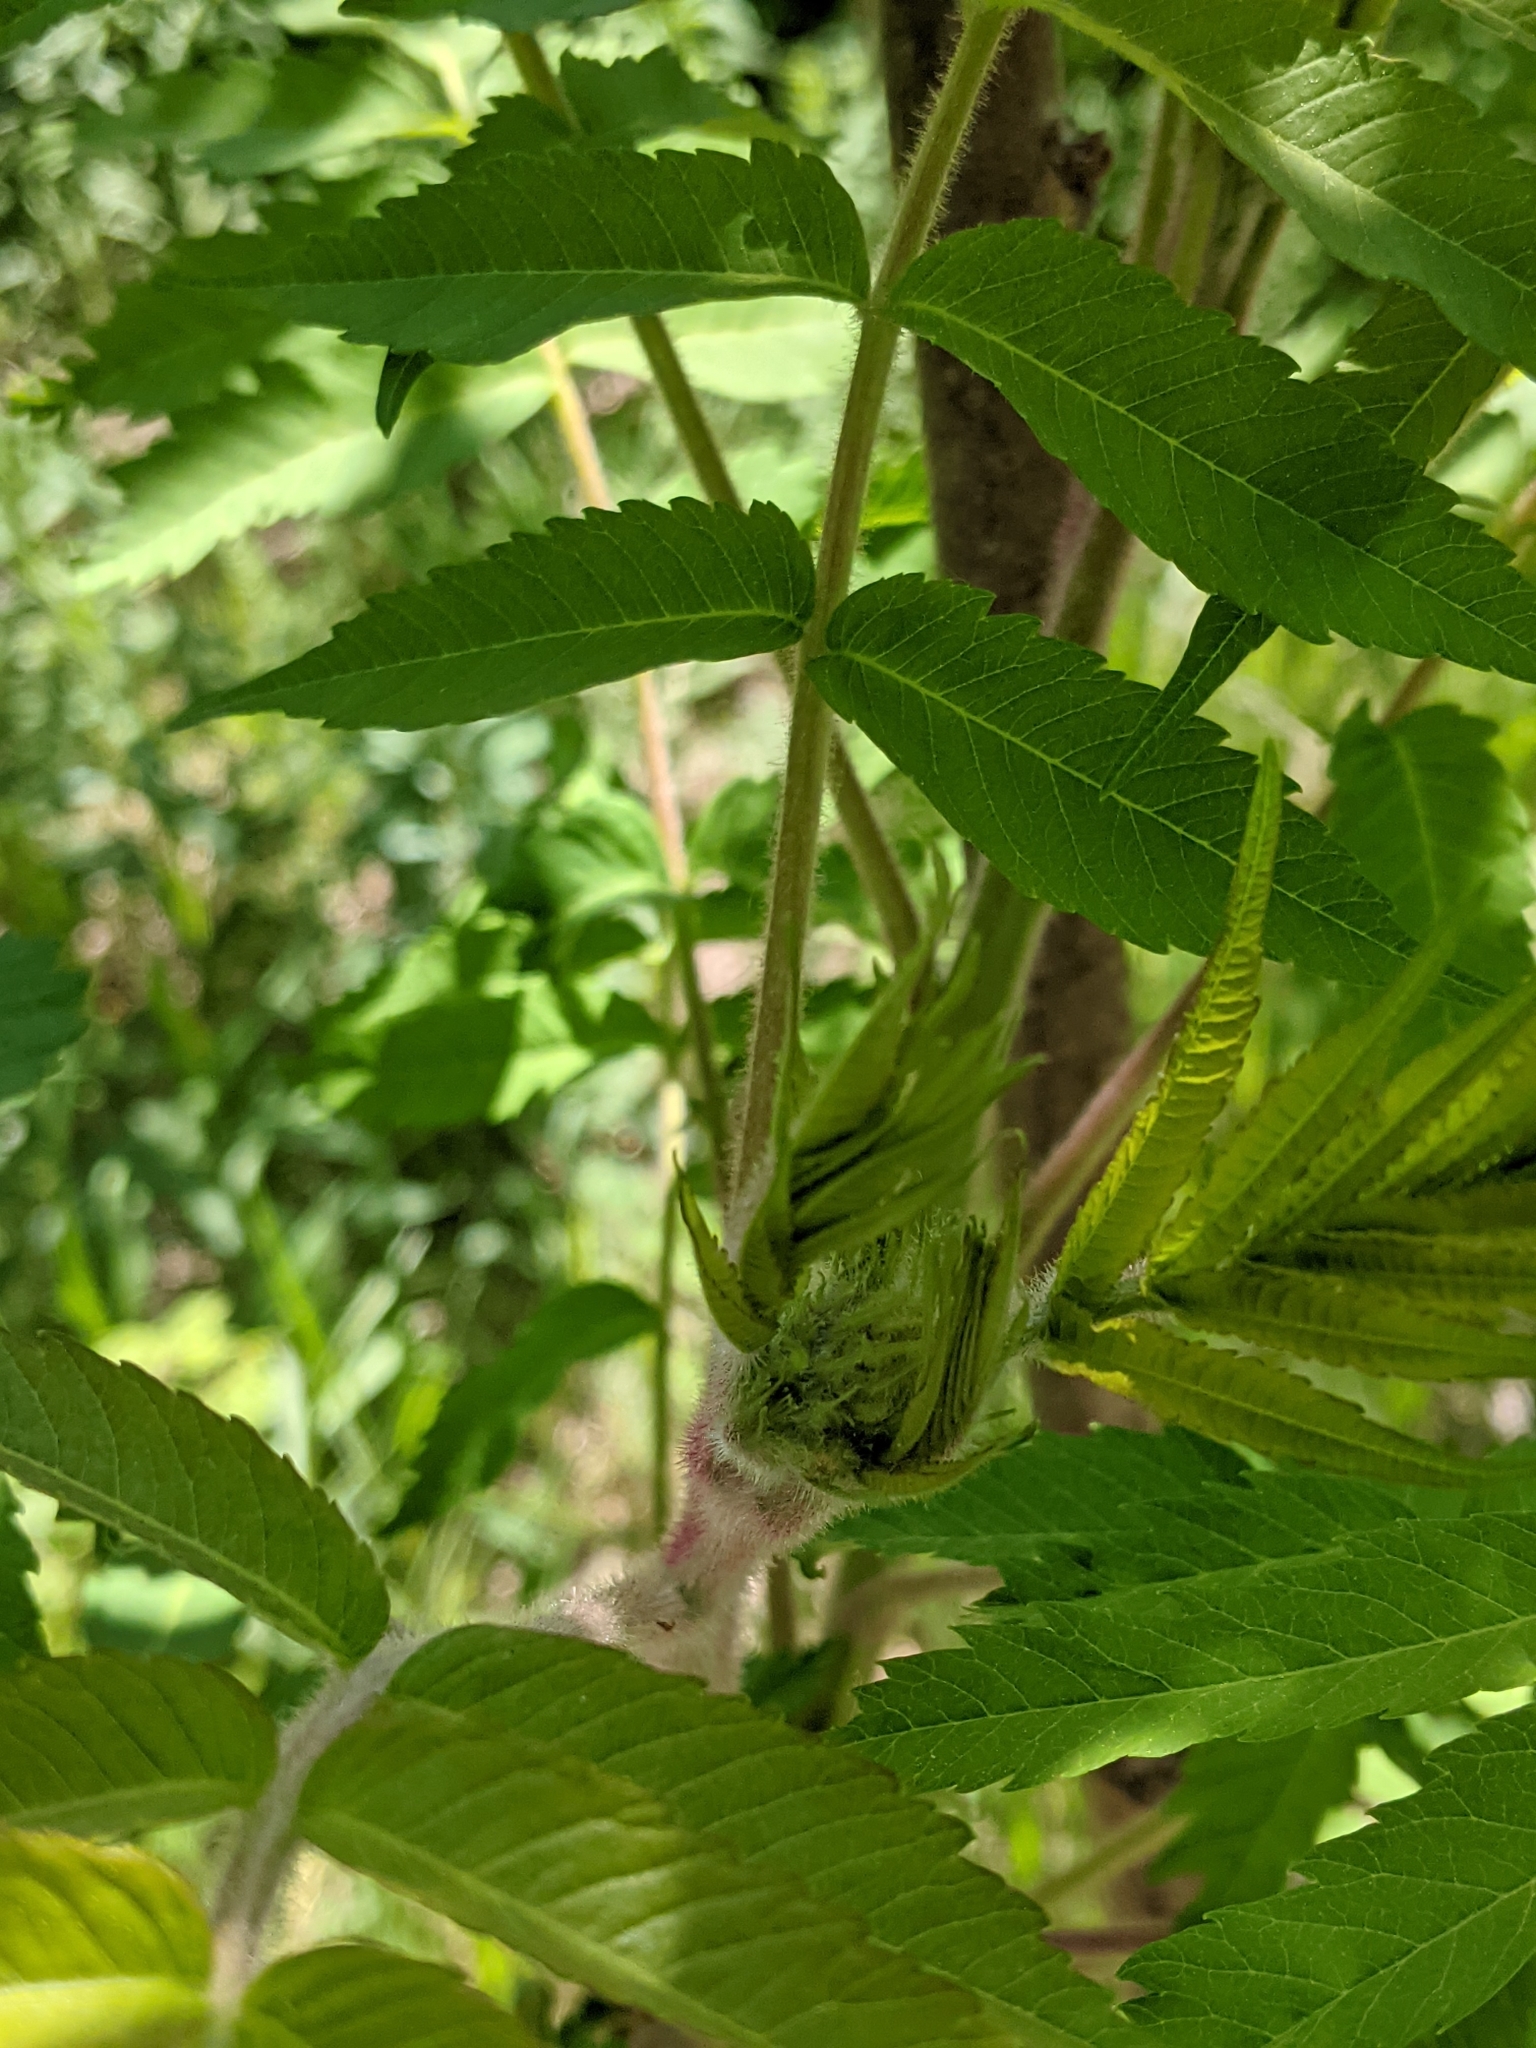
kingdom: Plantae
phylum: Tracheophyta
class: Magnoliopsida
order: Sapindales
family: Anacardiaceae
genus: Rhus
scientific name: Rhus typhina
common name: Staghorn sumac
